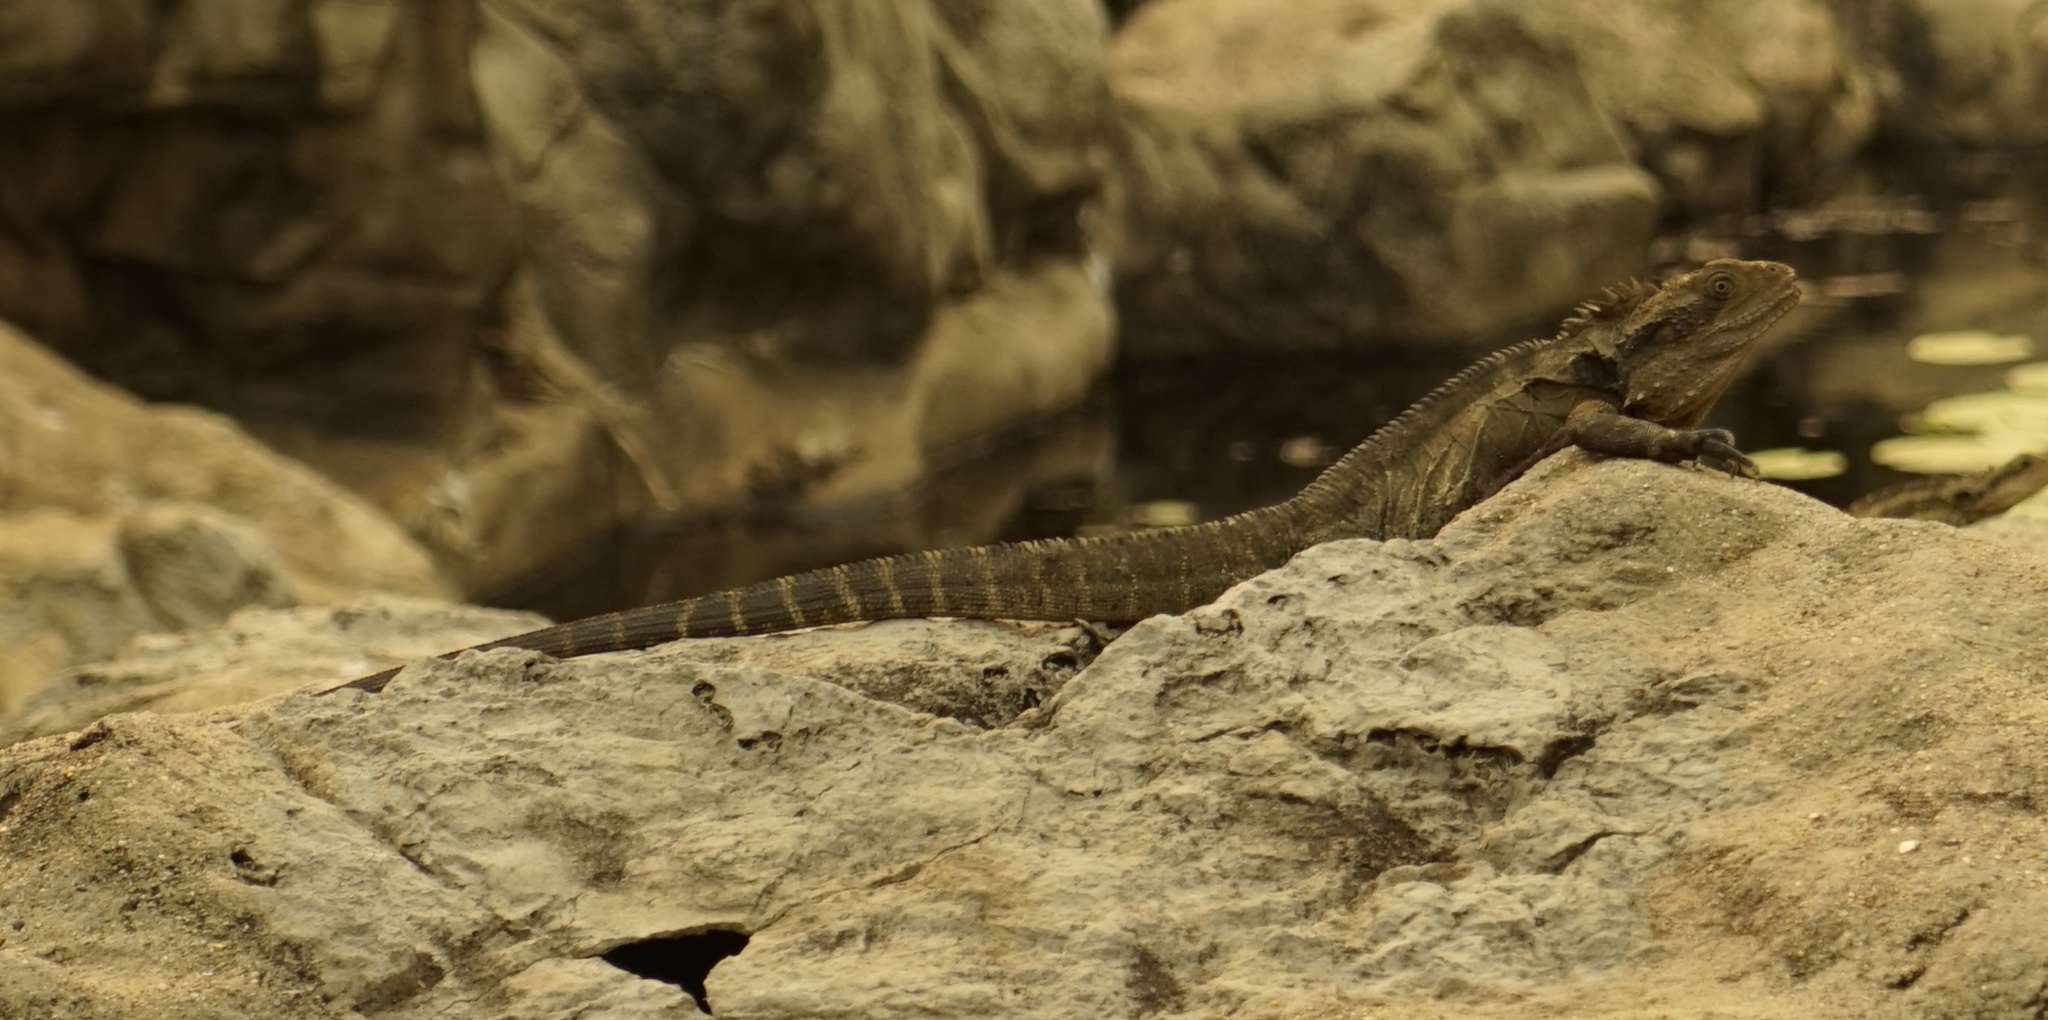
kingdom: Animalia
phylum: Chordata
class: Squamata
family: Agamidae
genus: Intellagama
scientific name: Intellagama lesueurii
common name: Eastern water dragon
